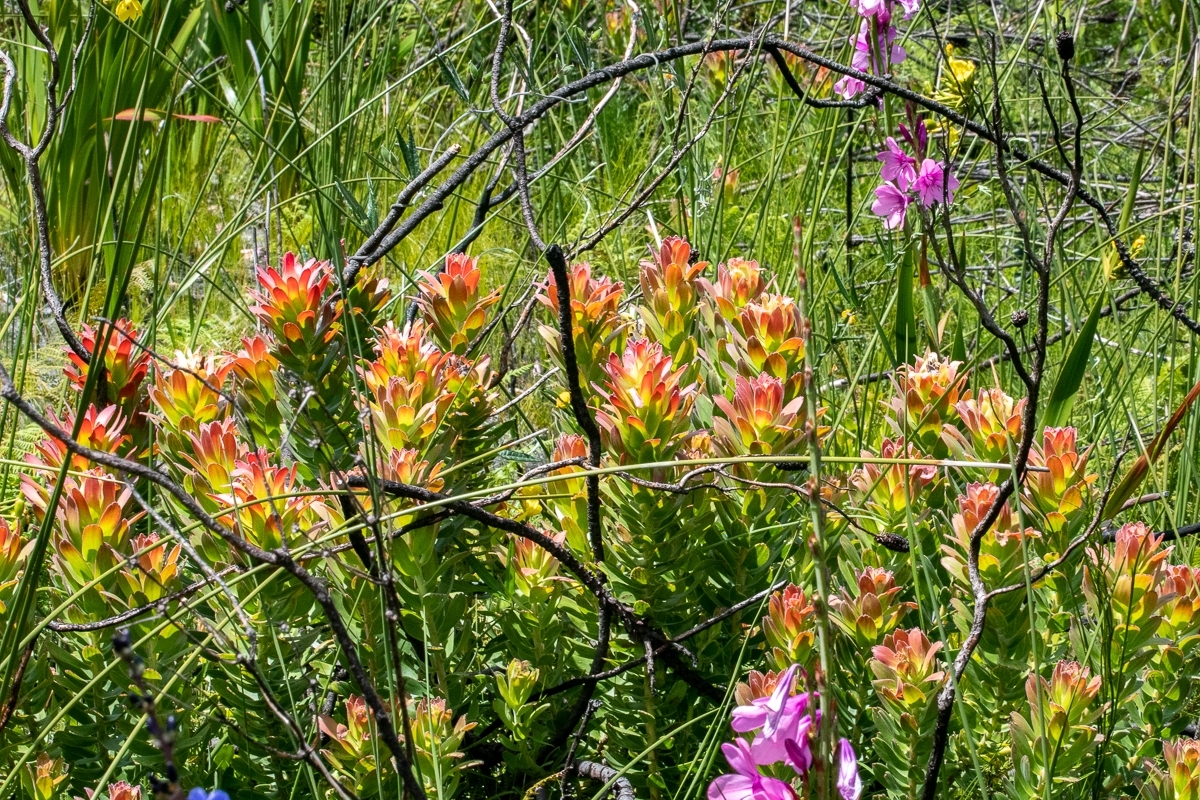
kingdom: Plantae
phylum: Tracheophyta
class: Magnoliopsida
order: Proteales
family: Proteaceae
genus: Mimetes
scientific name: Mimetes cucullatus
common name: Common pagoda
